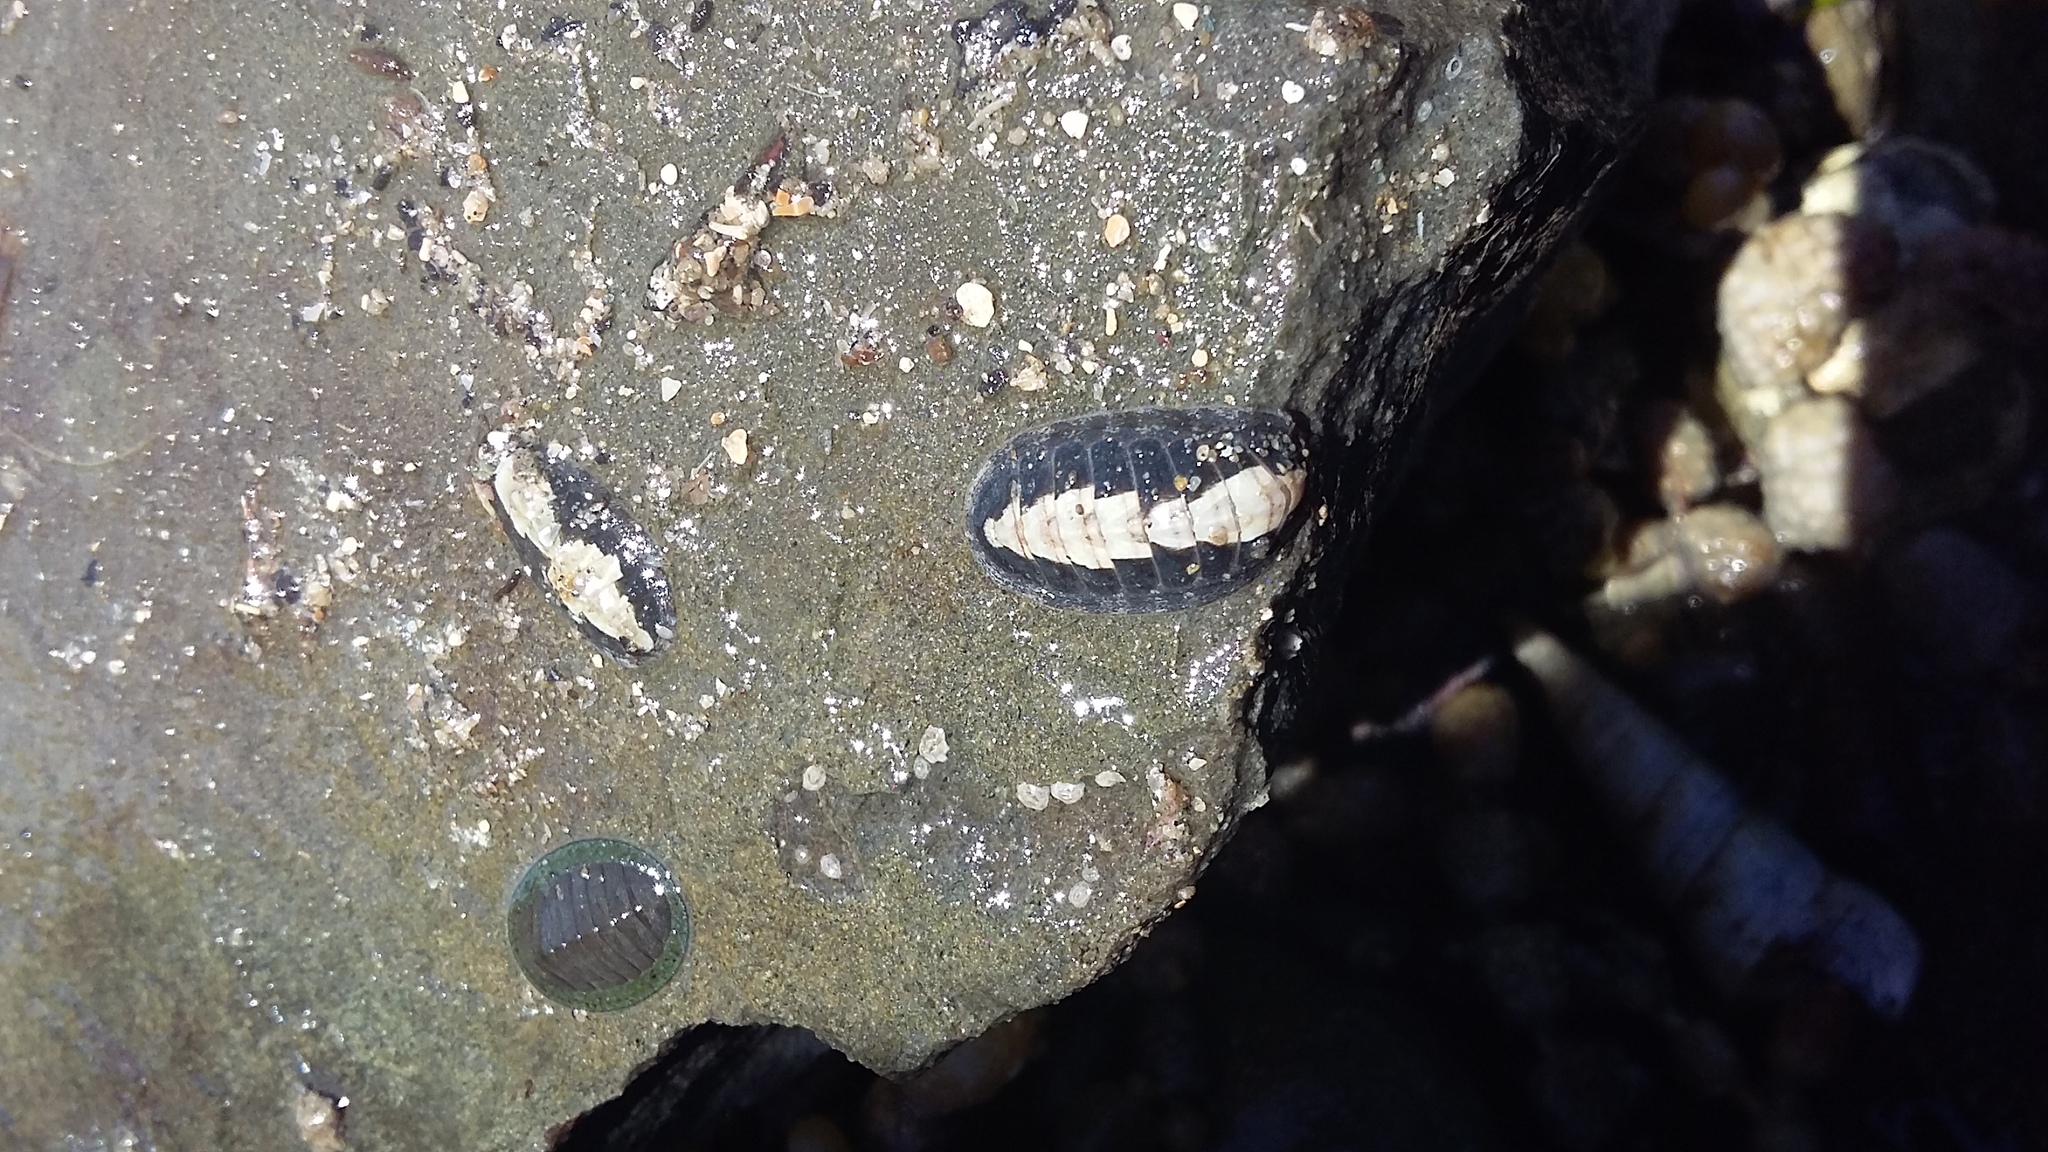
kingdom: Animalia
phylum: Mollusca
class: Polyplacophora
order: Chitonida
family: Ischnochitonidae
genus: Ischnochiton
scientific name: Ischnochiton maorianus
